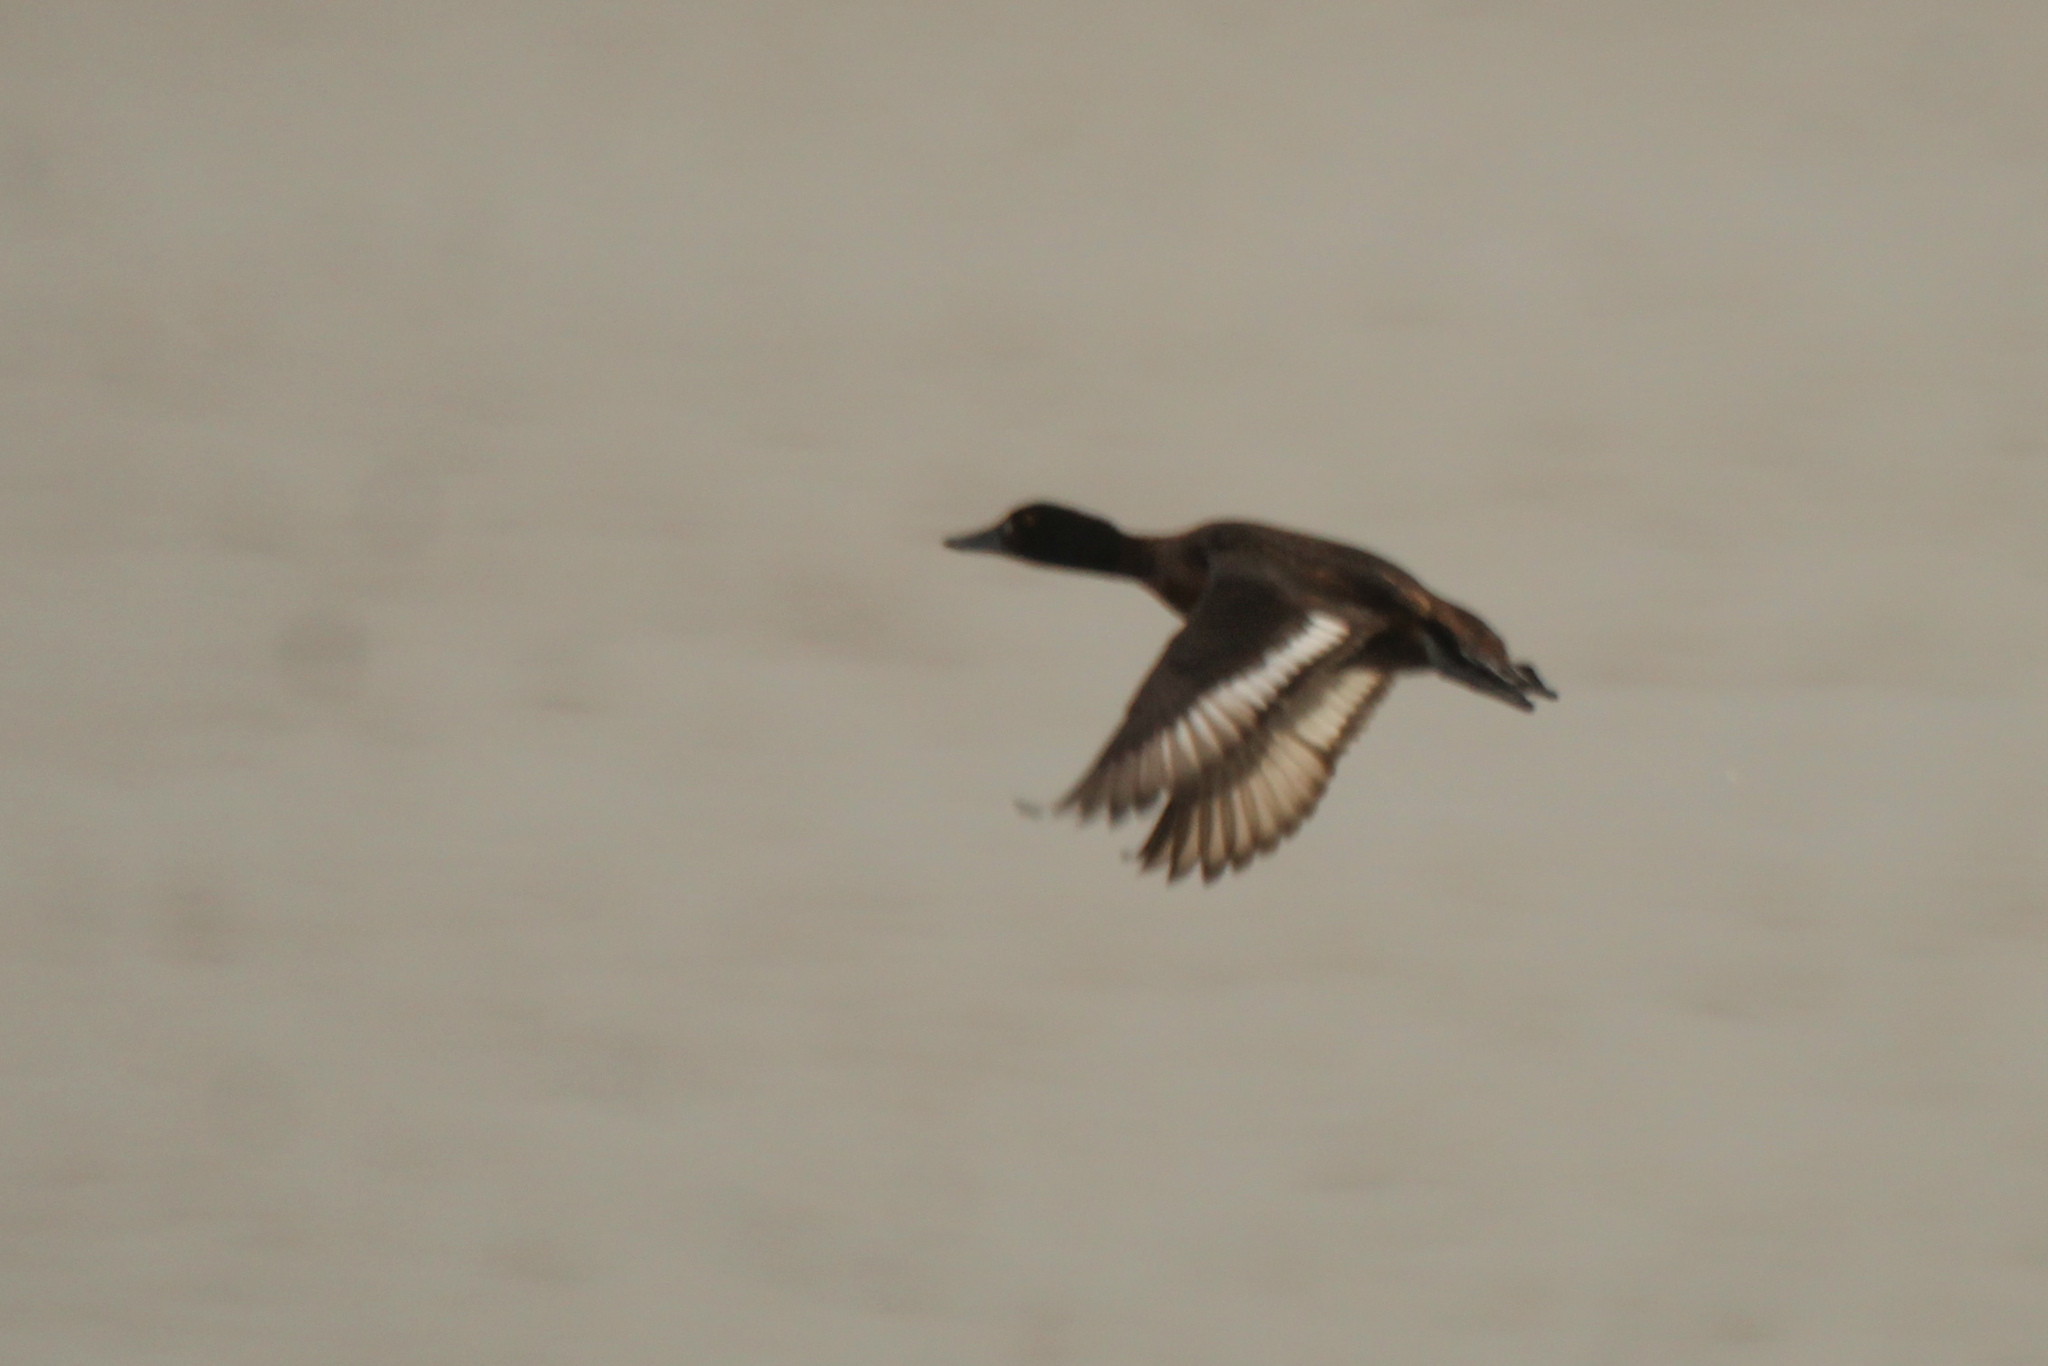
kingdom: Animalia
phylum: Chordata
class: Aves
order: Anseriformes
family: Anatidae
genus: Aythya
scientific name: Aythya fuligula
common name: Tufted duck
